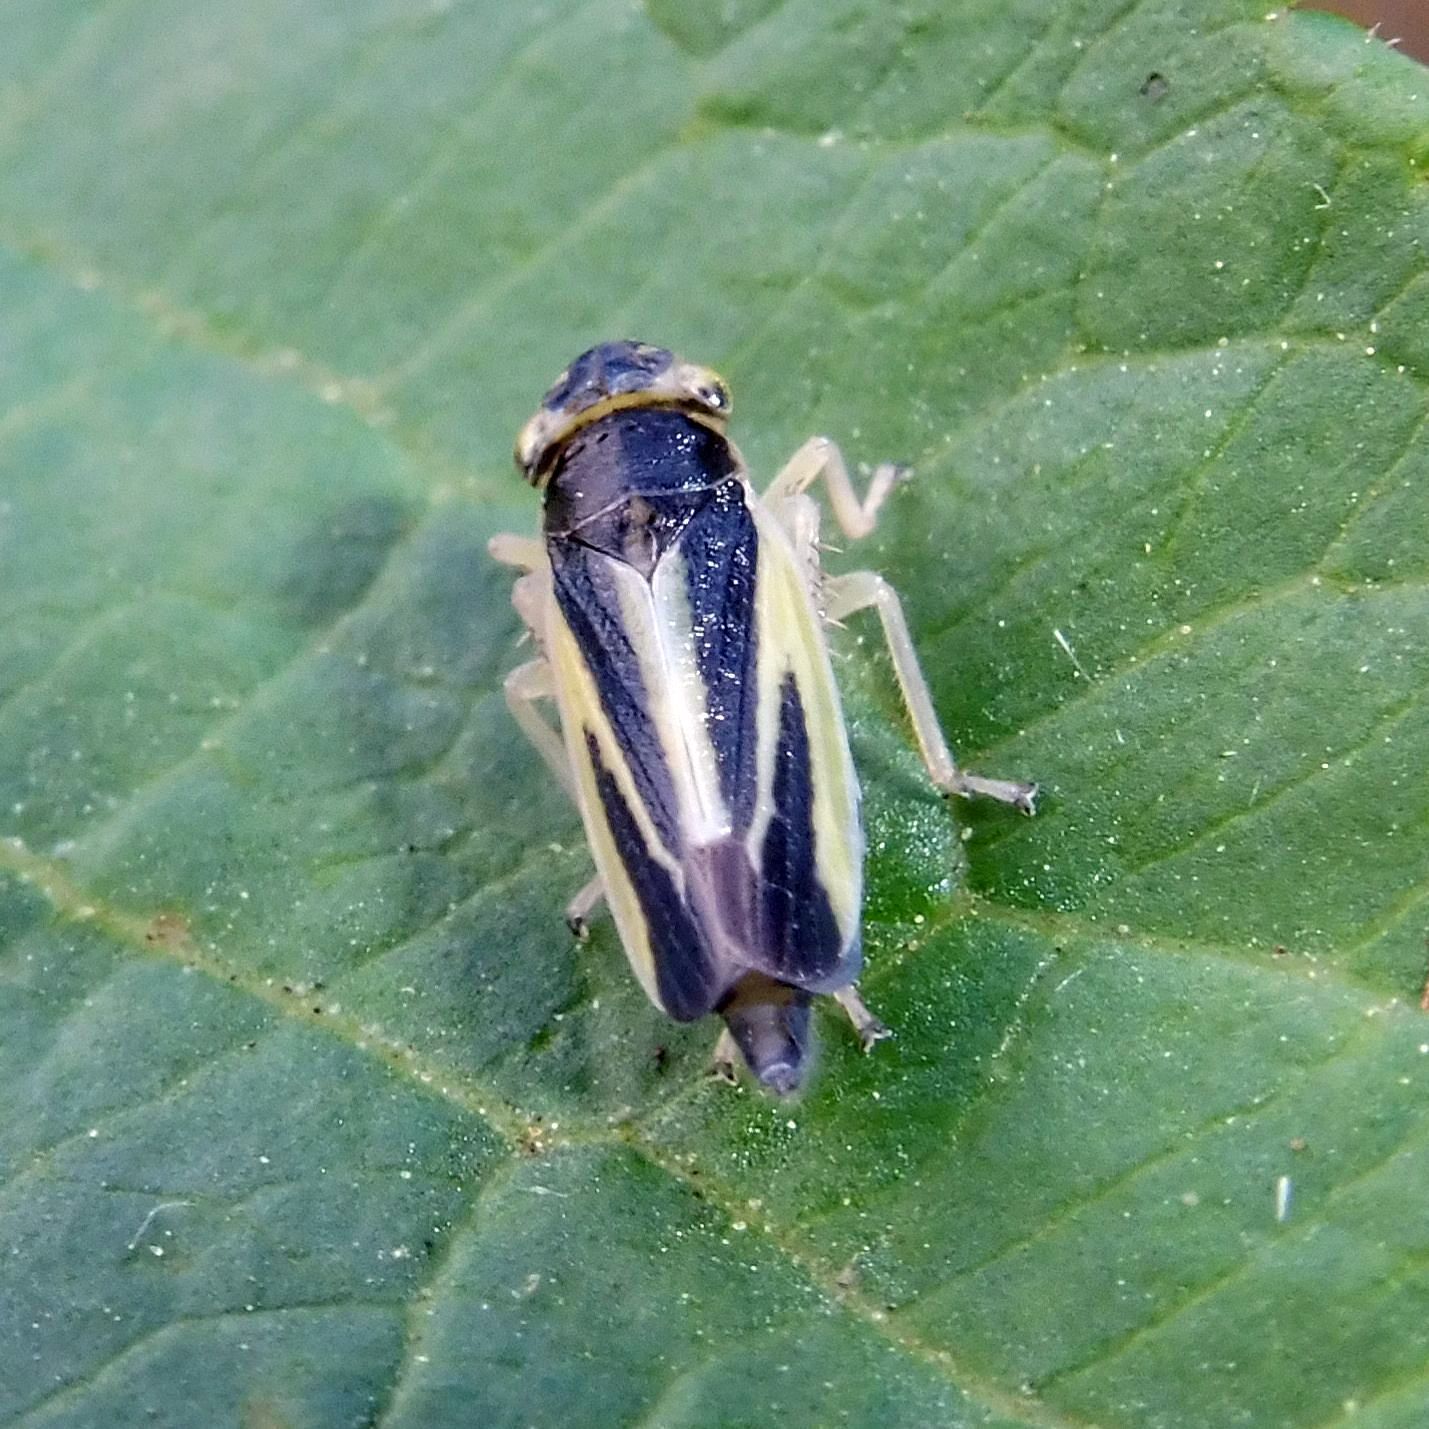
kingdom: Animalia
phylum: Arthropoda
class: Insecta
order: Hemiptera
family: Cicadellidae
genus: Evacanthus
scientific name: Evacanthus interruptus
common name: Leafhopper
